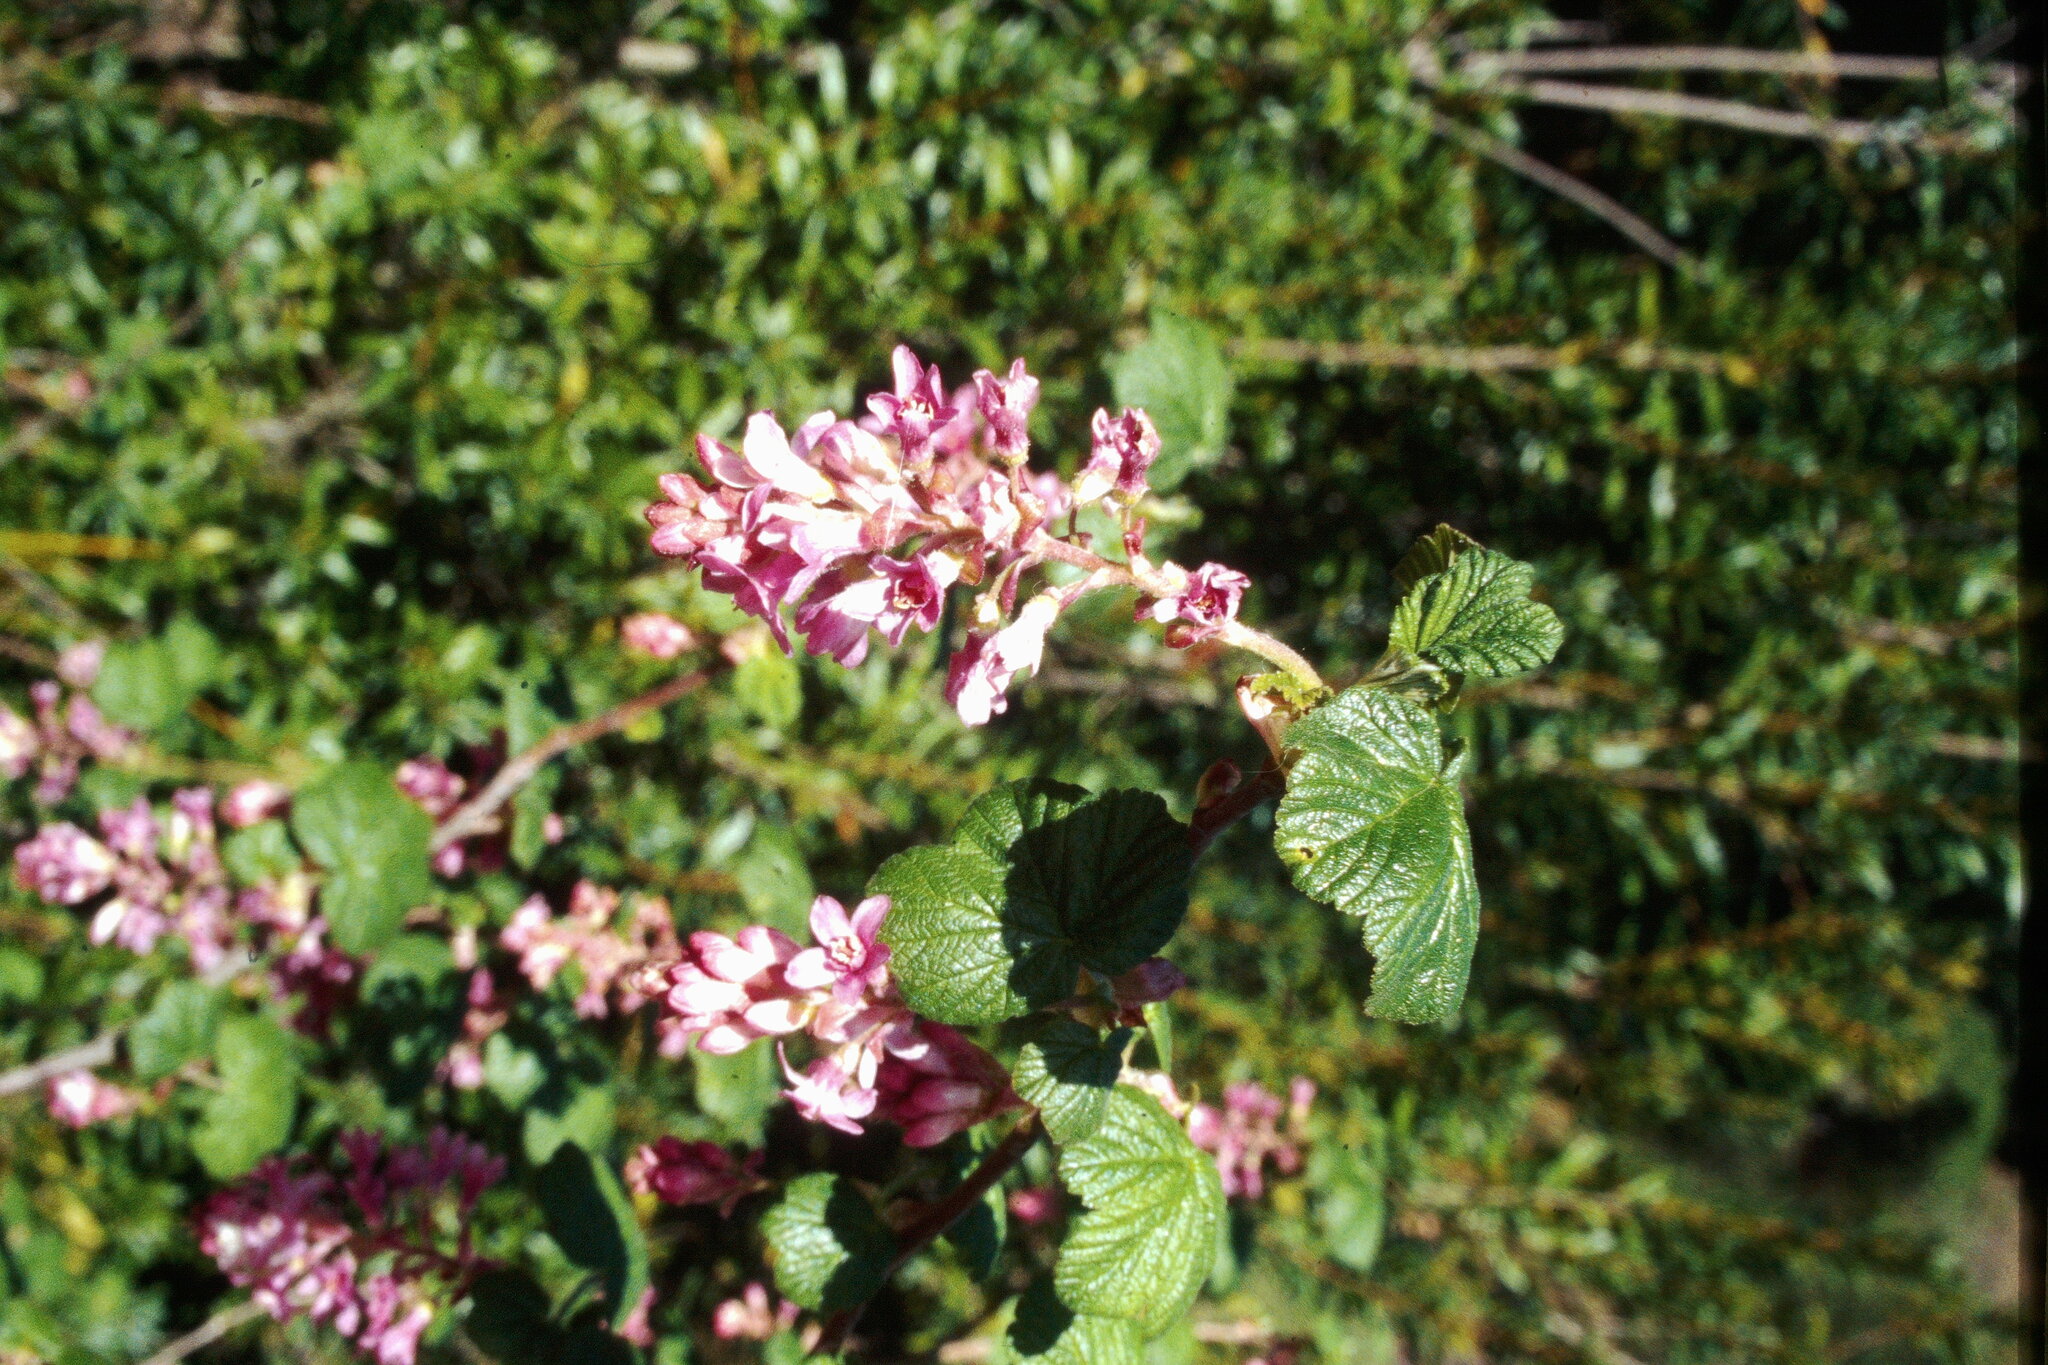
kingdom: Plantae
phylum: Tracheophyta
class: Magnoliopsida
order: Saxifragales
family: Grossulariaceae
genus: Ribes
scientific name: Ribes sanguineum
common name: Flowering currant
